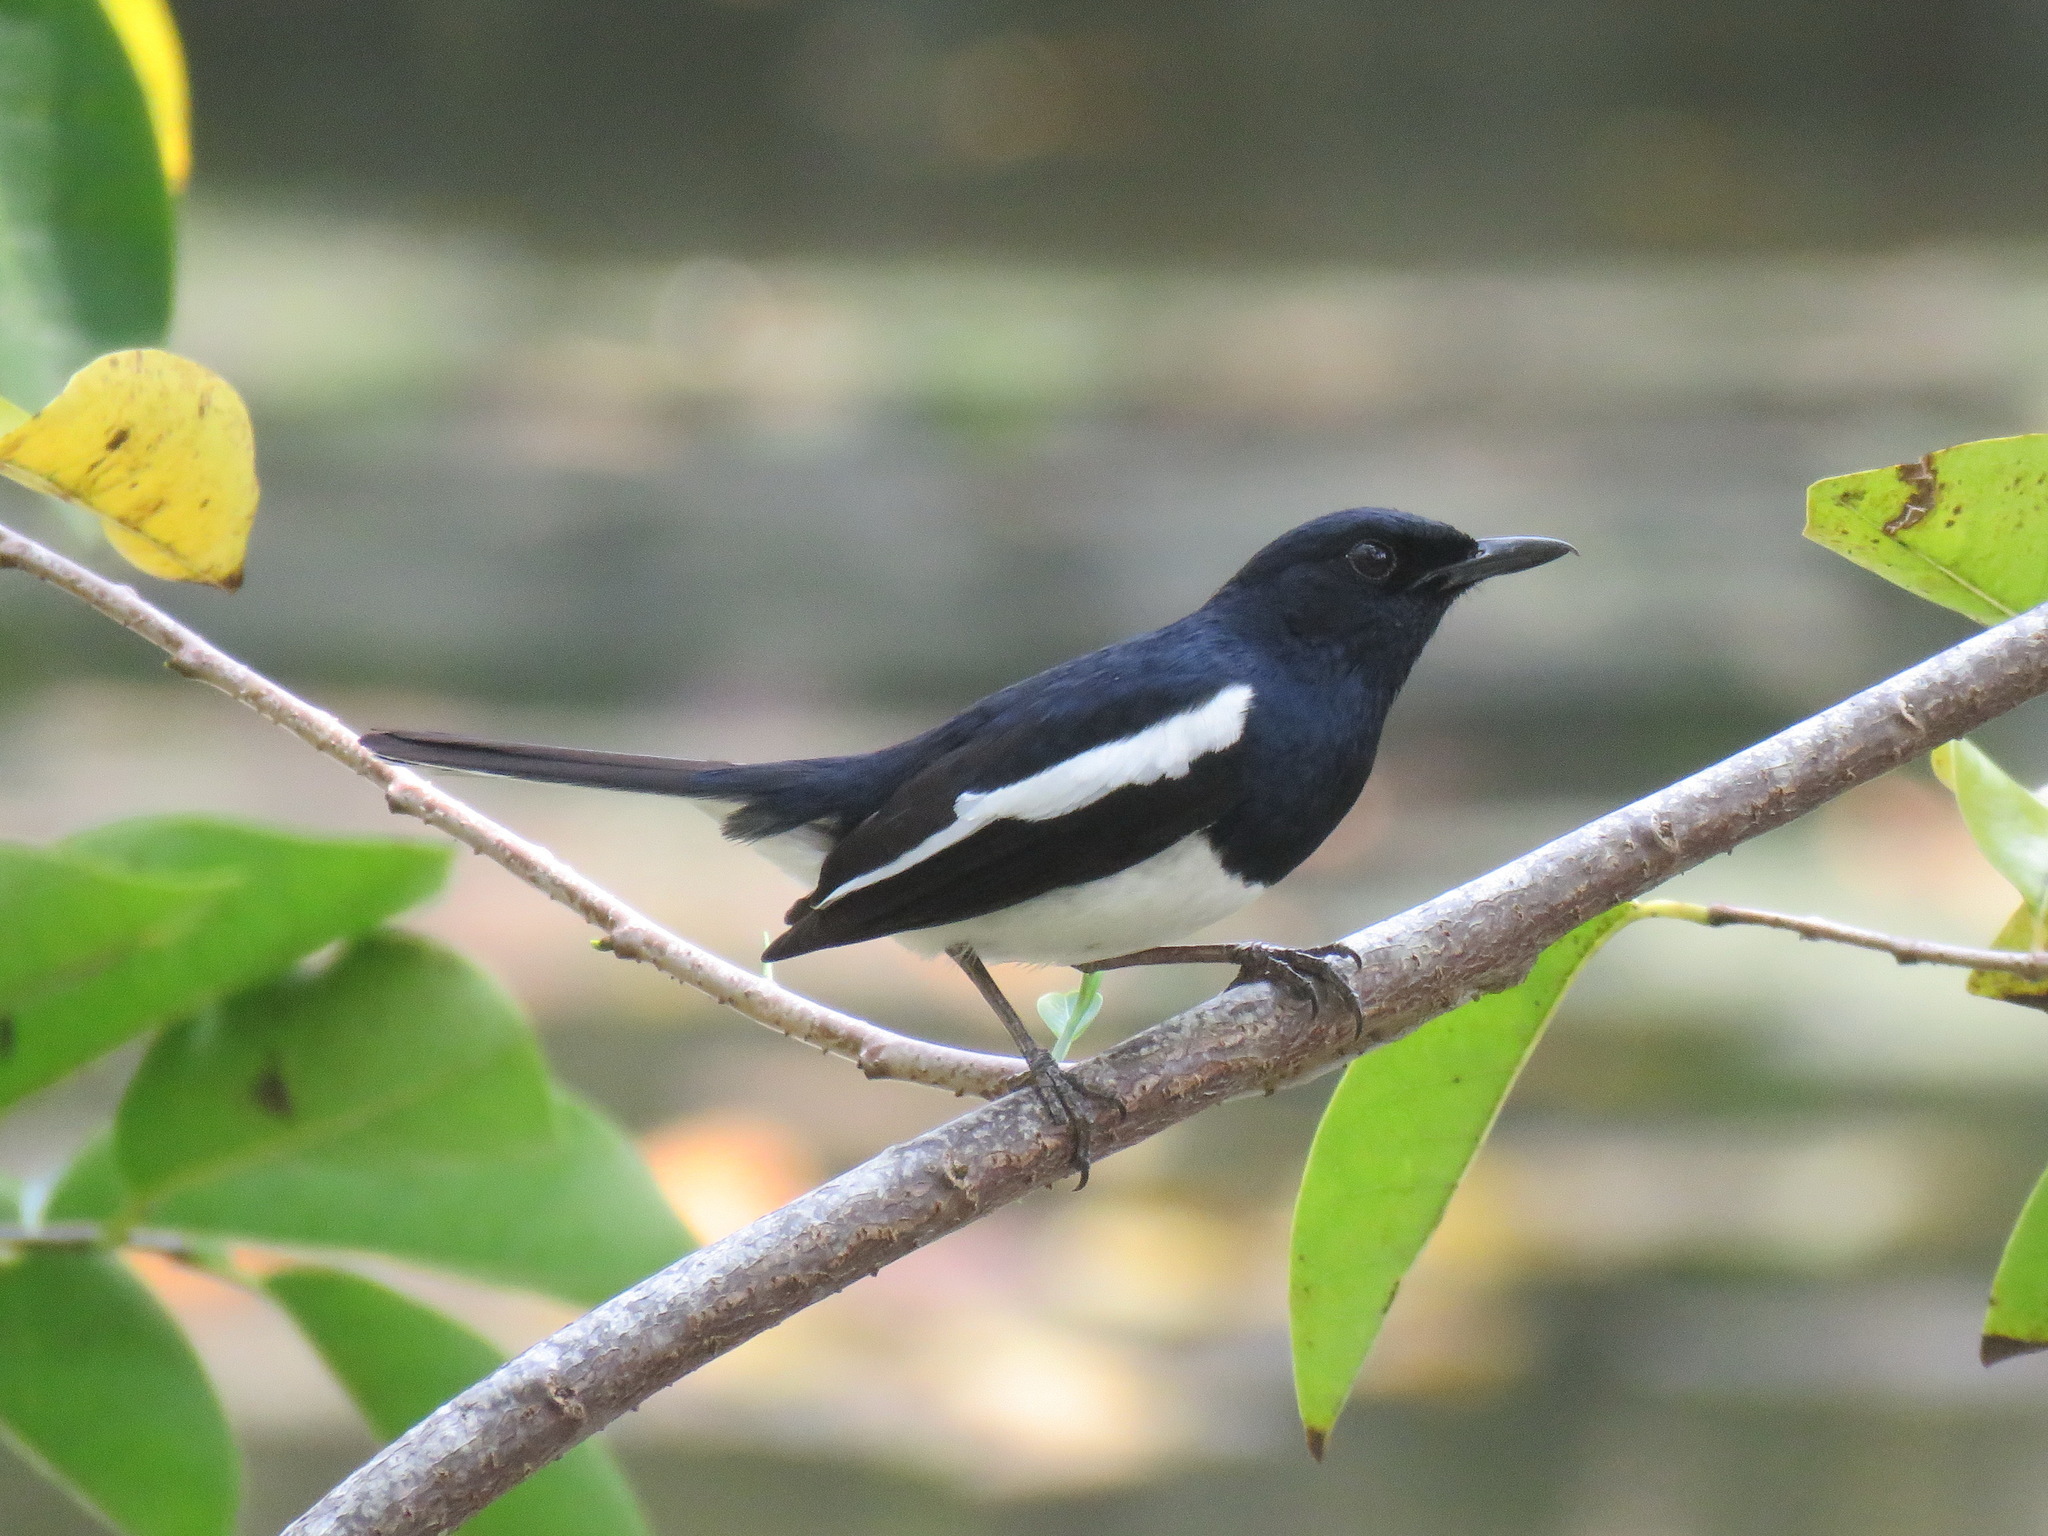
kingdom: Animalia
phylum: Chordata
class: Aves
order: Passeriformes
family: Muscicapidae
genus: Copsychus
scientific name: Copsychus saularis
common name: Oriental magpie-robin
